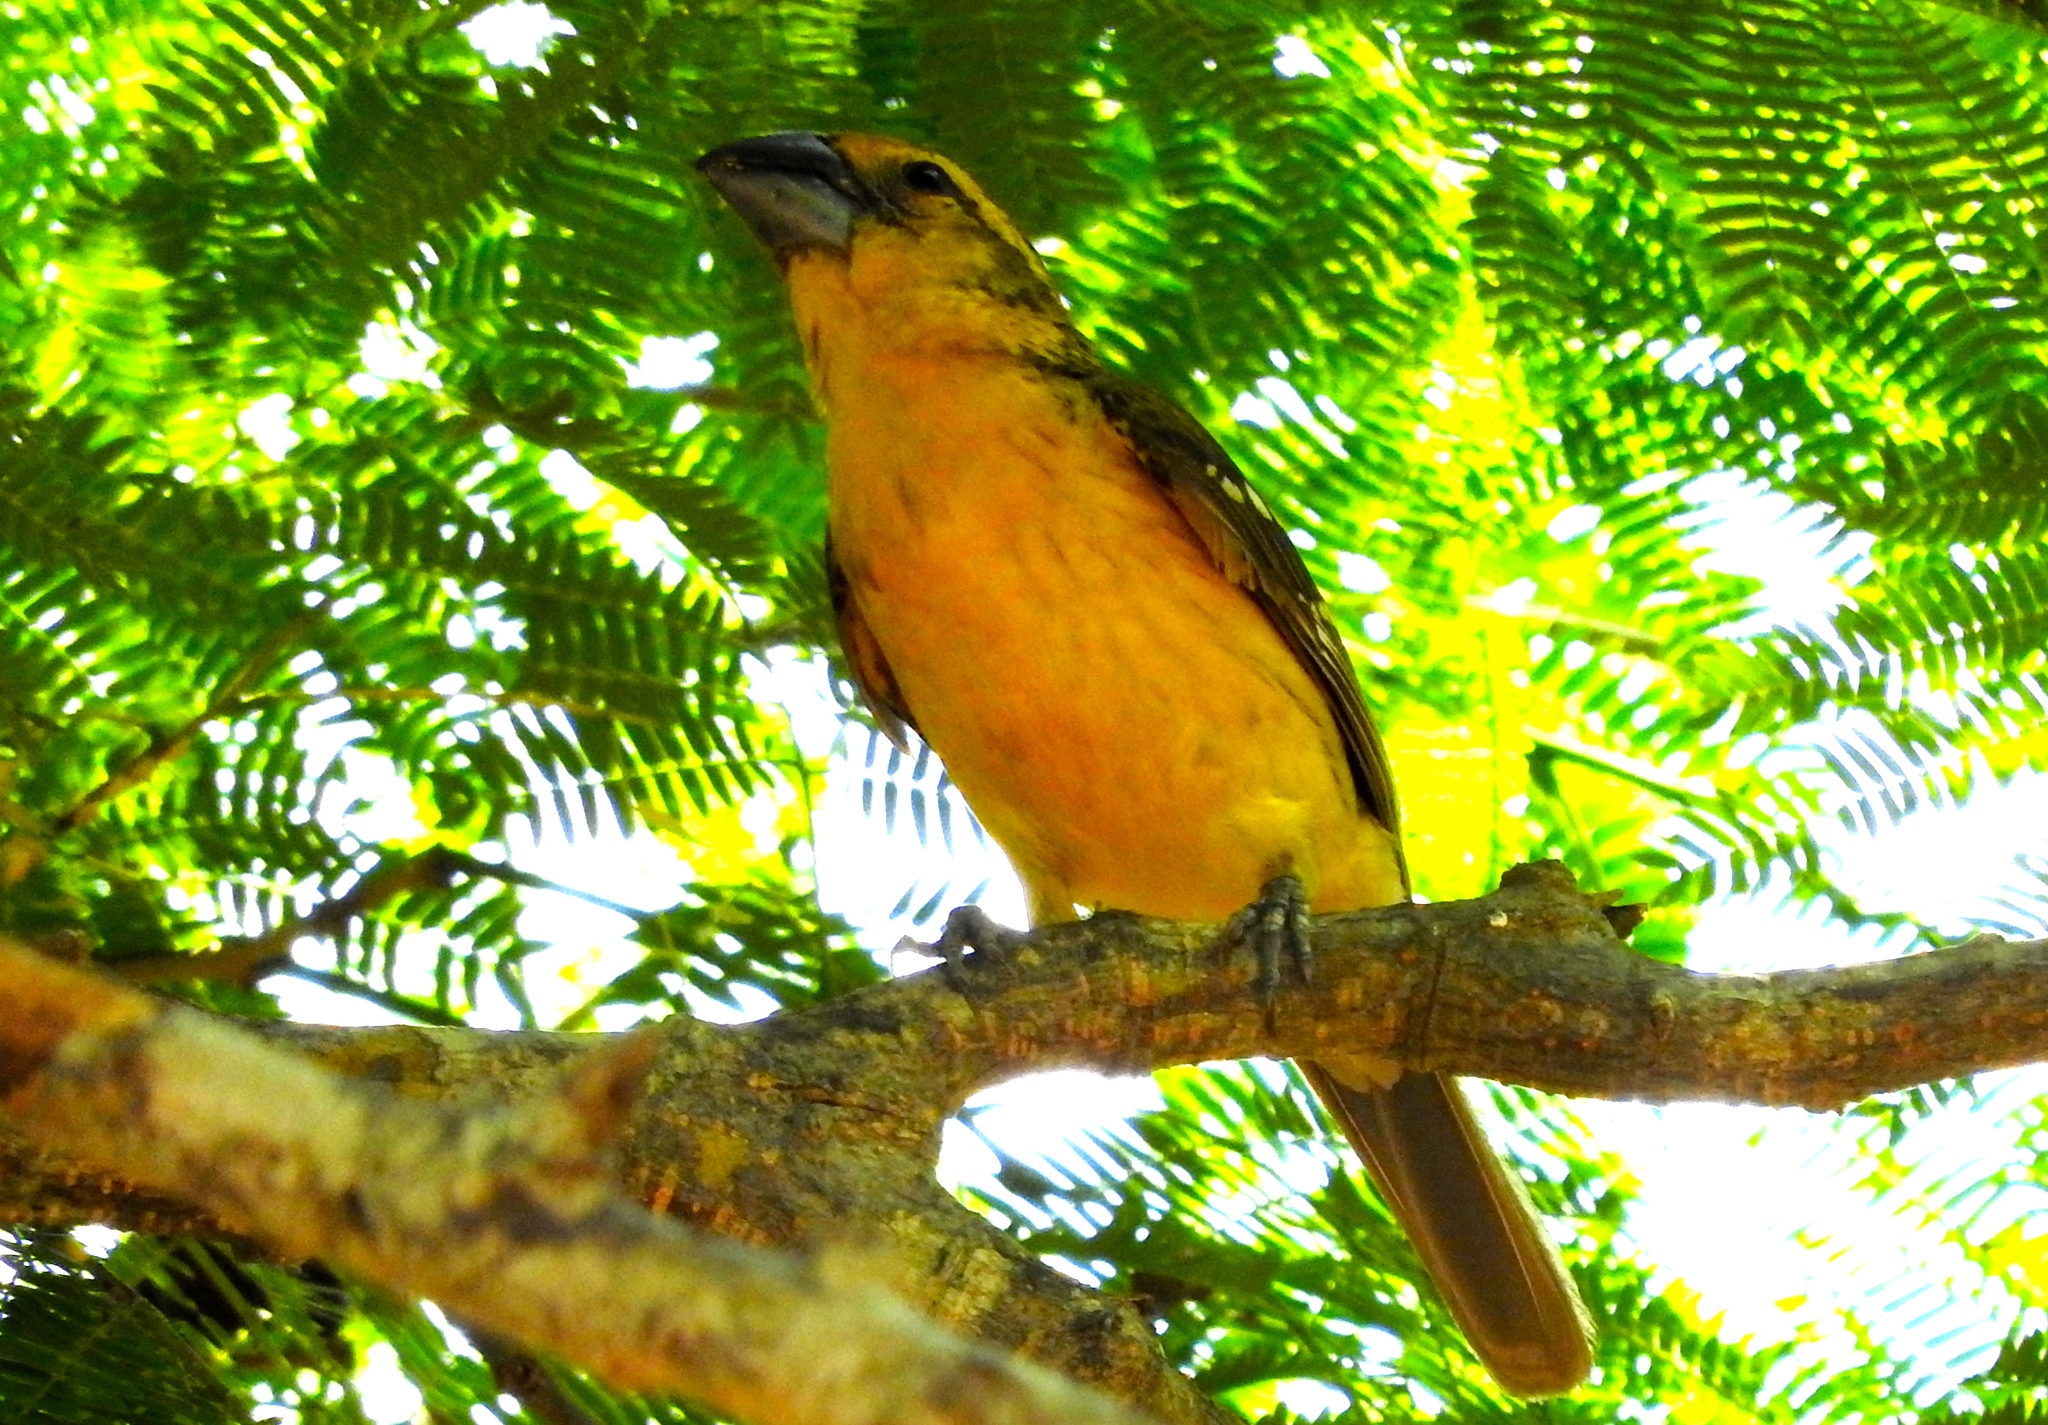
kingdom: Animalia
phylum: Chordata
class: Aves
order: Passeriformes
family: Cardinalidae
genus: Pheucticus
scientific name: Pheucticus chrysopeplus
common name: Yellow grosbeak
